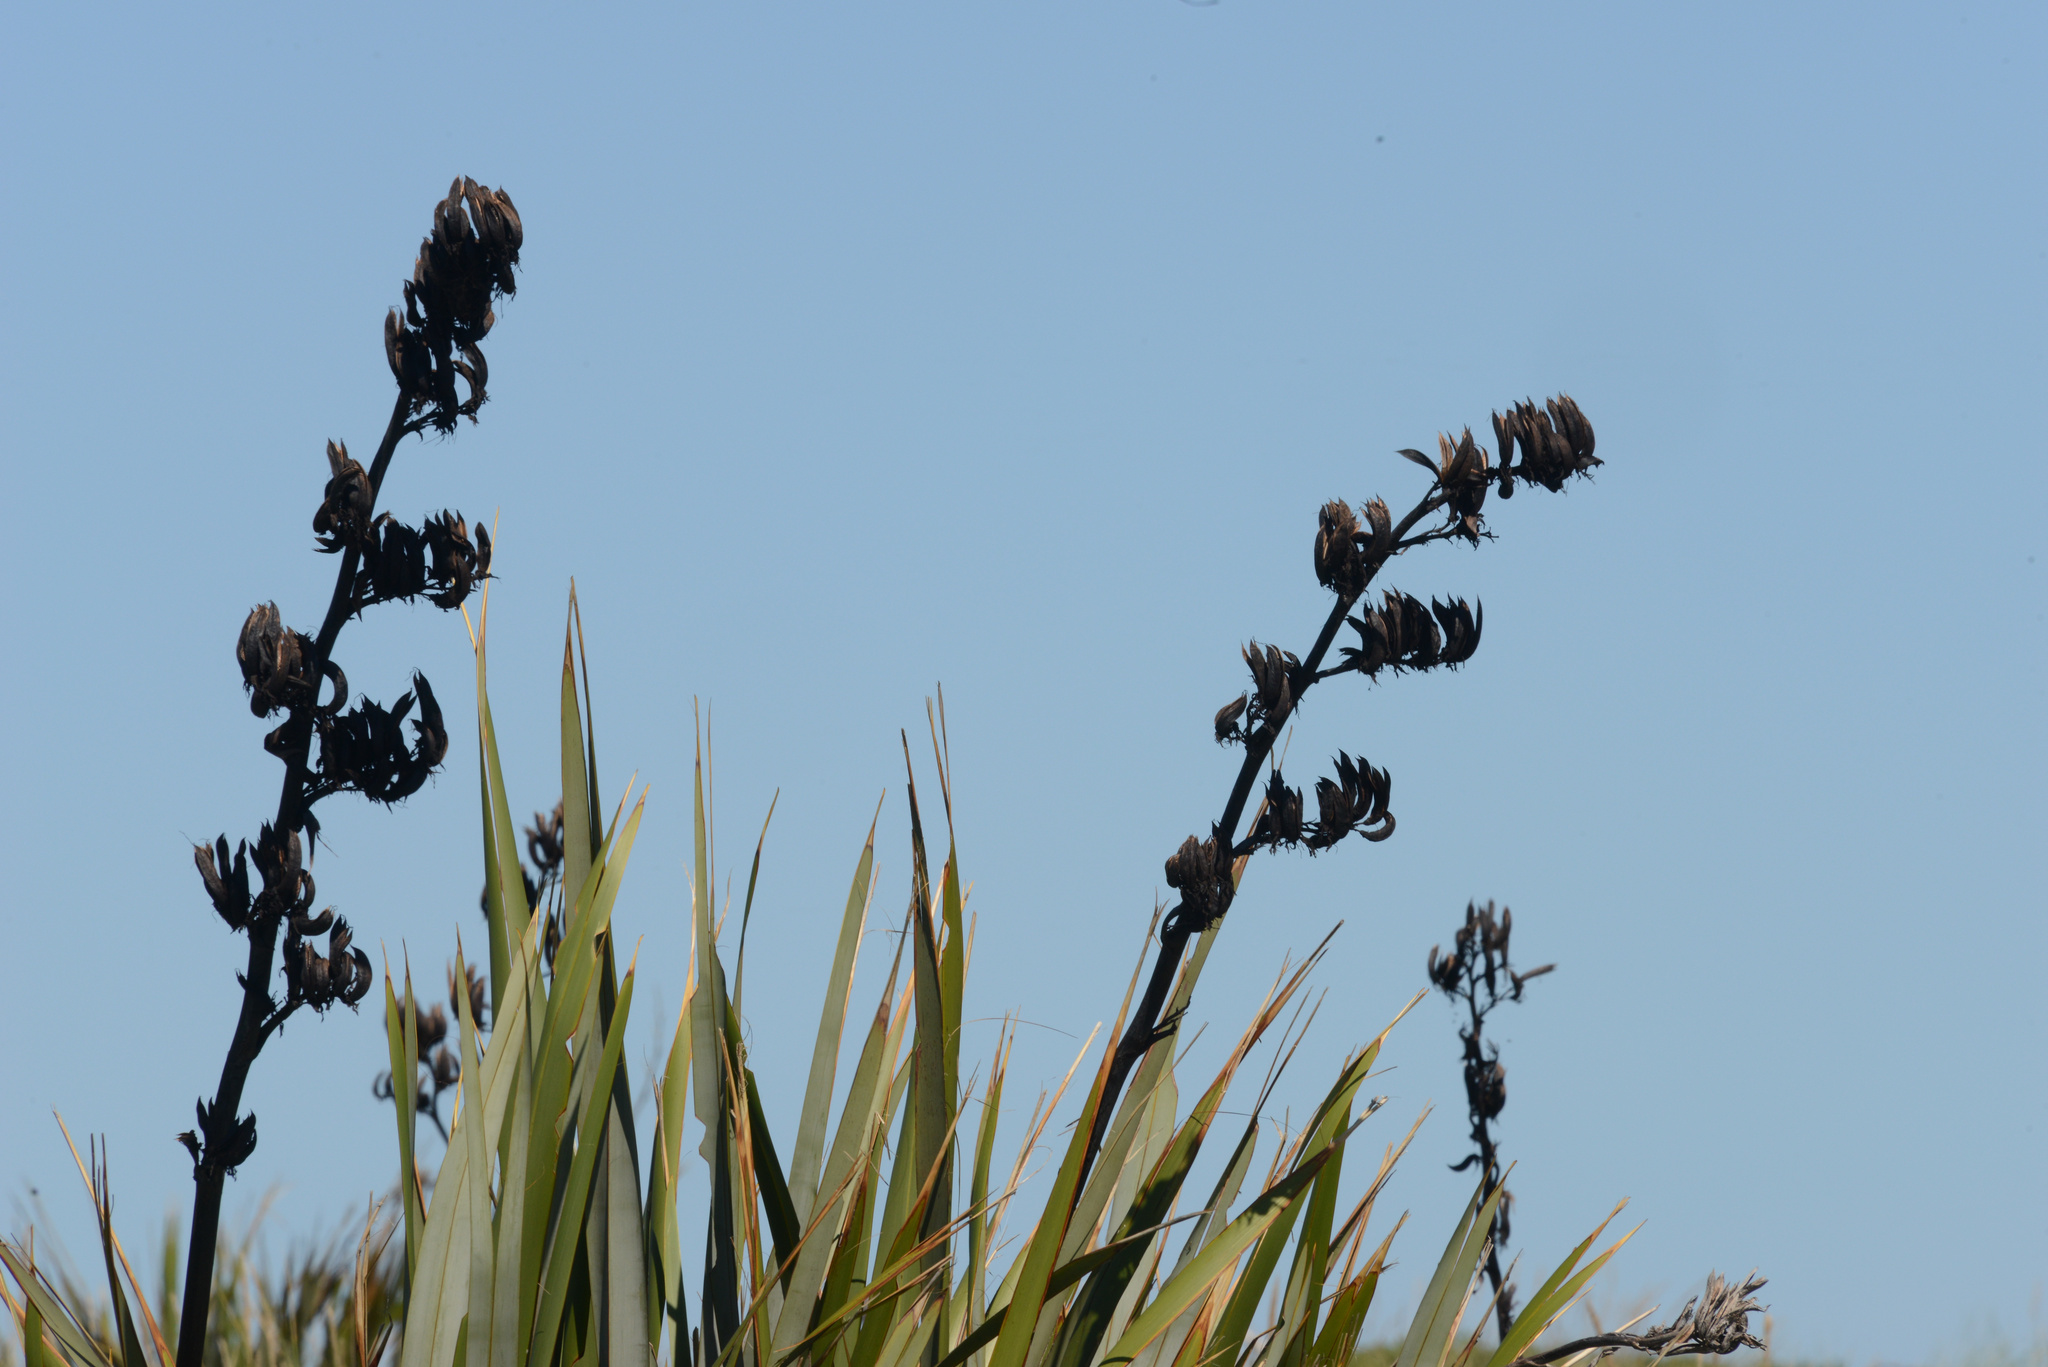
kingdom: Plantae
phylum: Tracheophyta
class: Liliopsida
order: Asparagales
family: Asphodelaceae
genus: Phormium
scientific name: Phormium tenax
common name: New zealand flax
